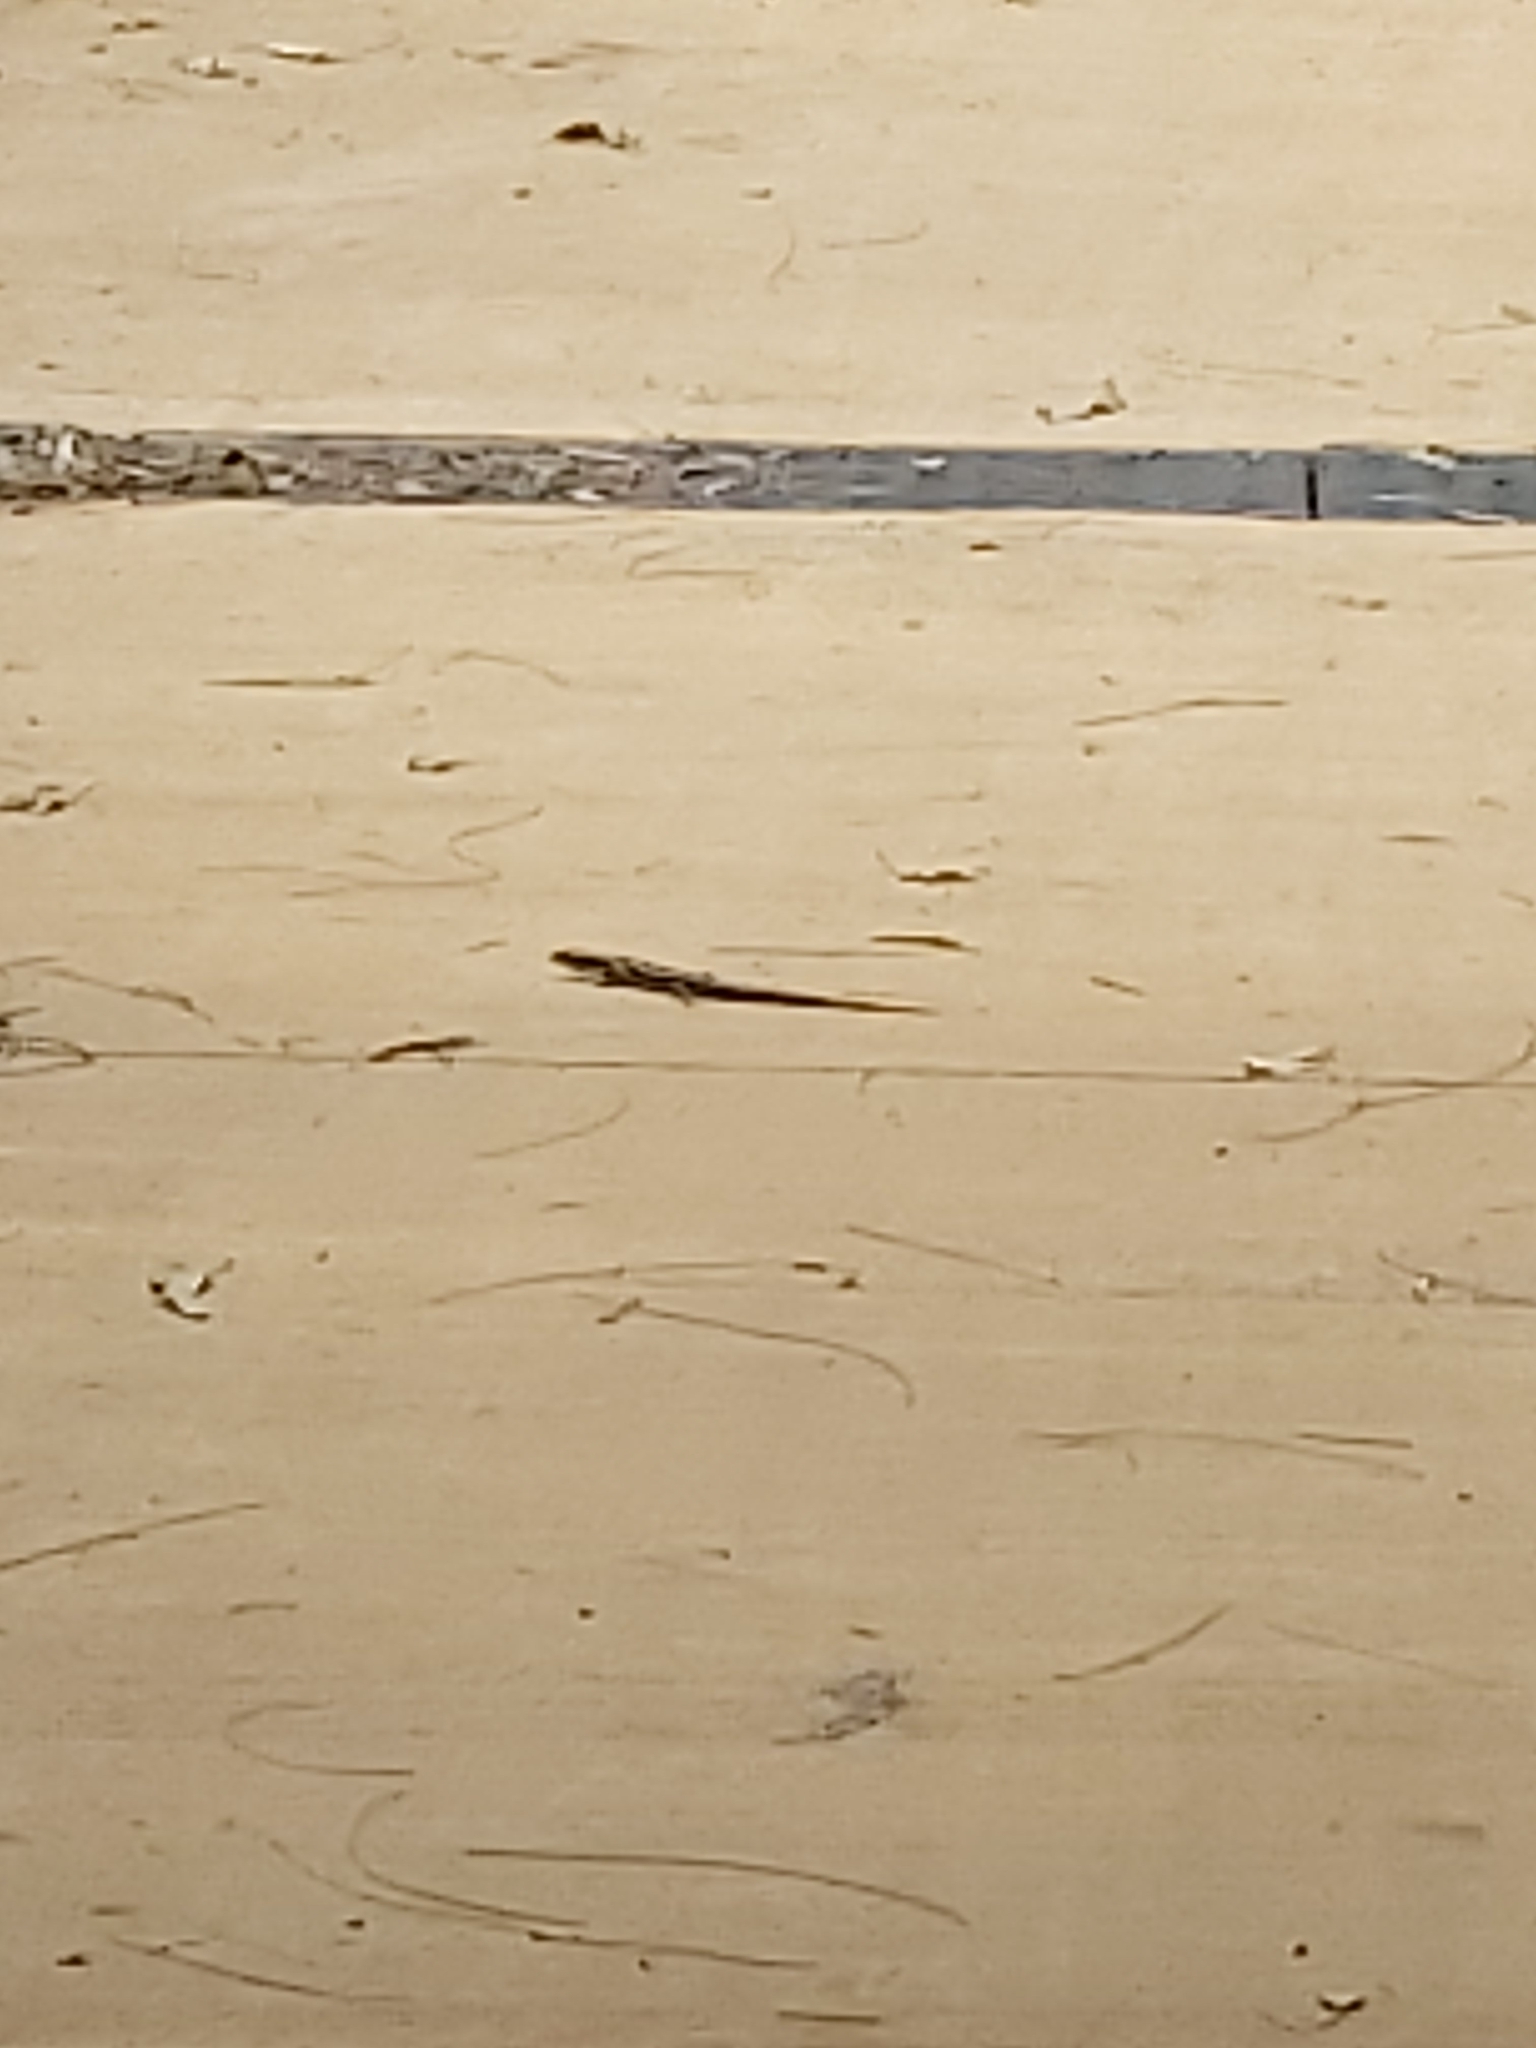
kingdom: Animalia
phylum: Chordata
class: Squamata
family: Scincidae
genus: Eulamprus
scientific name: Eulamprus quoyii
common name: Eastern water skink
